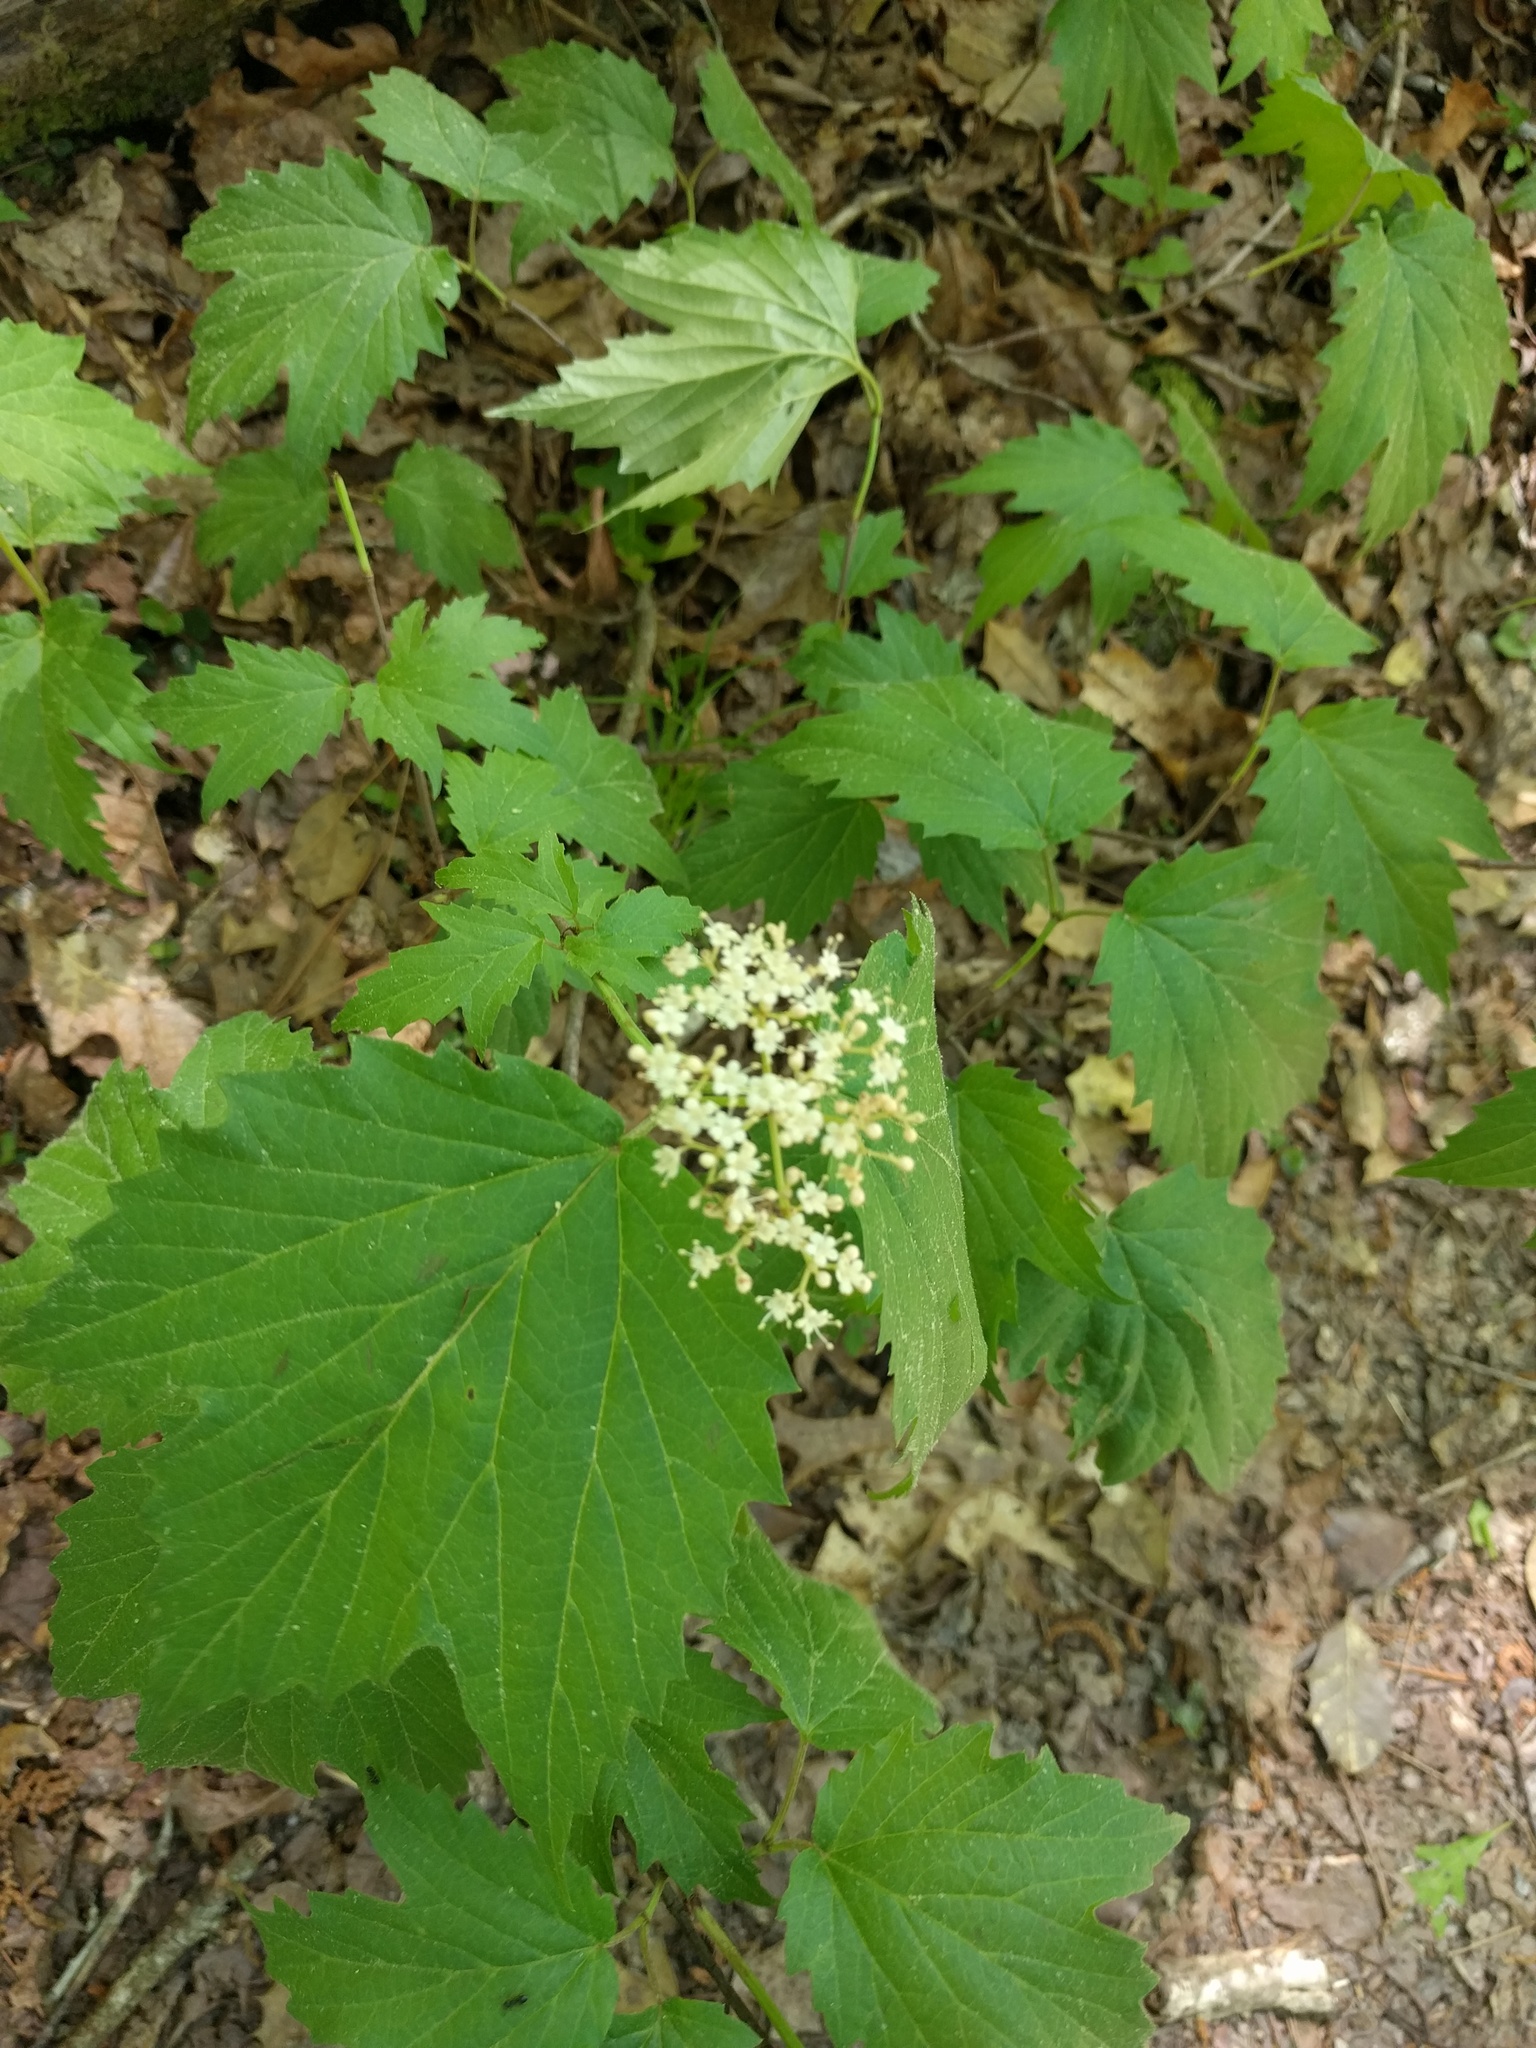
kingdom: Plantae
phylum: Tracheophyta
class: Magnoliopsida
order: Dipsacales
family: Viburnaceae
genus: Viburnum
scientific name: Viburnum acerifolium
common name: Dockmackie
